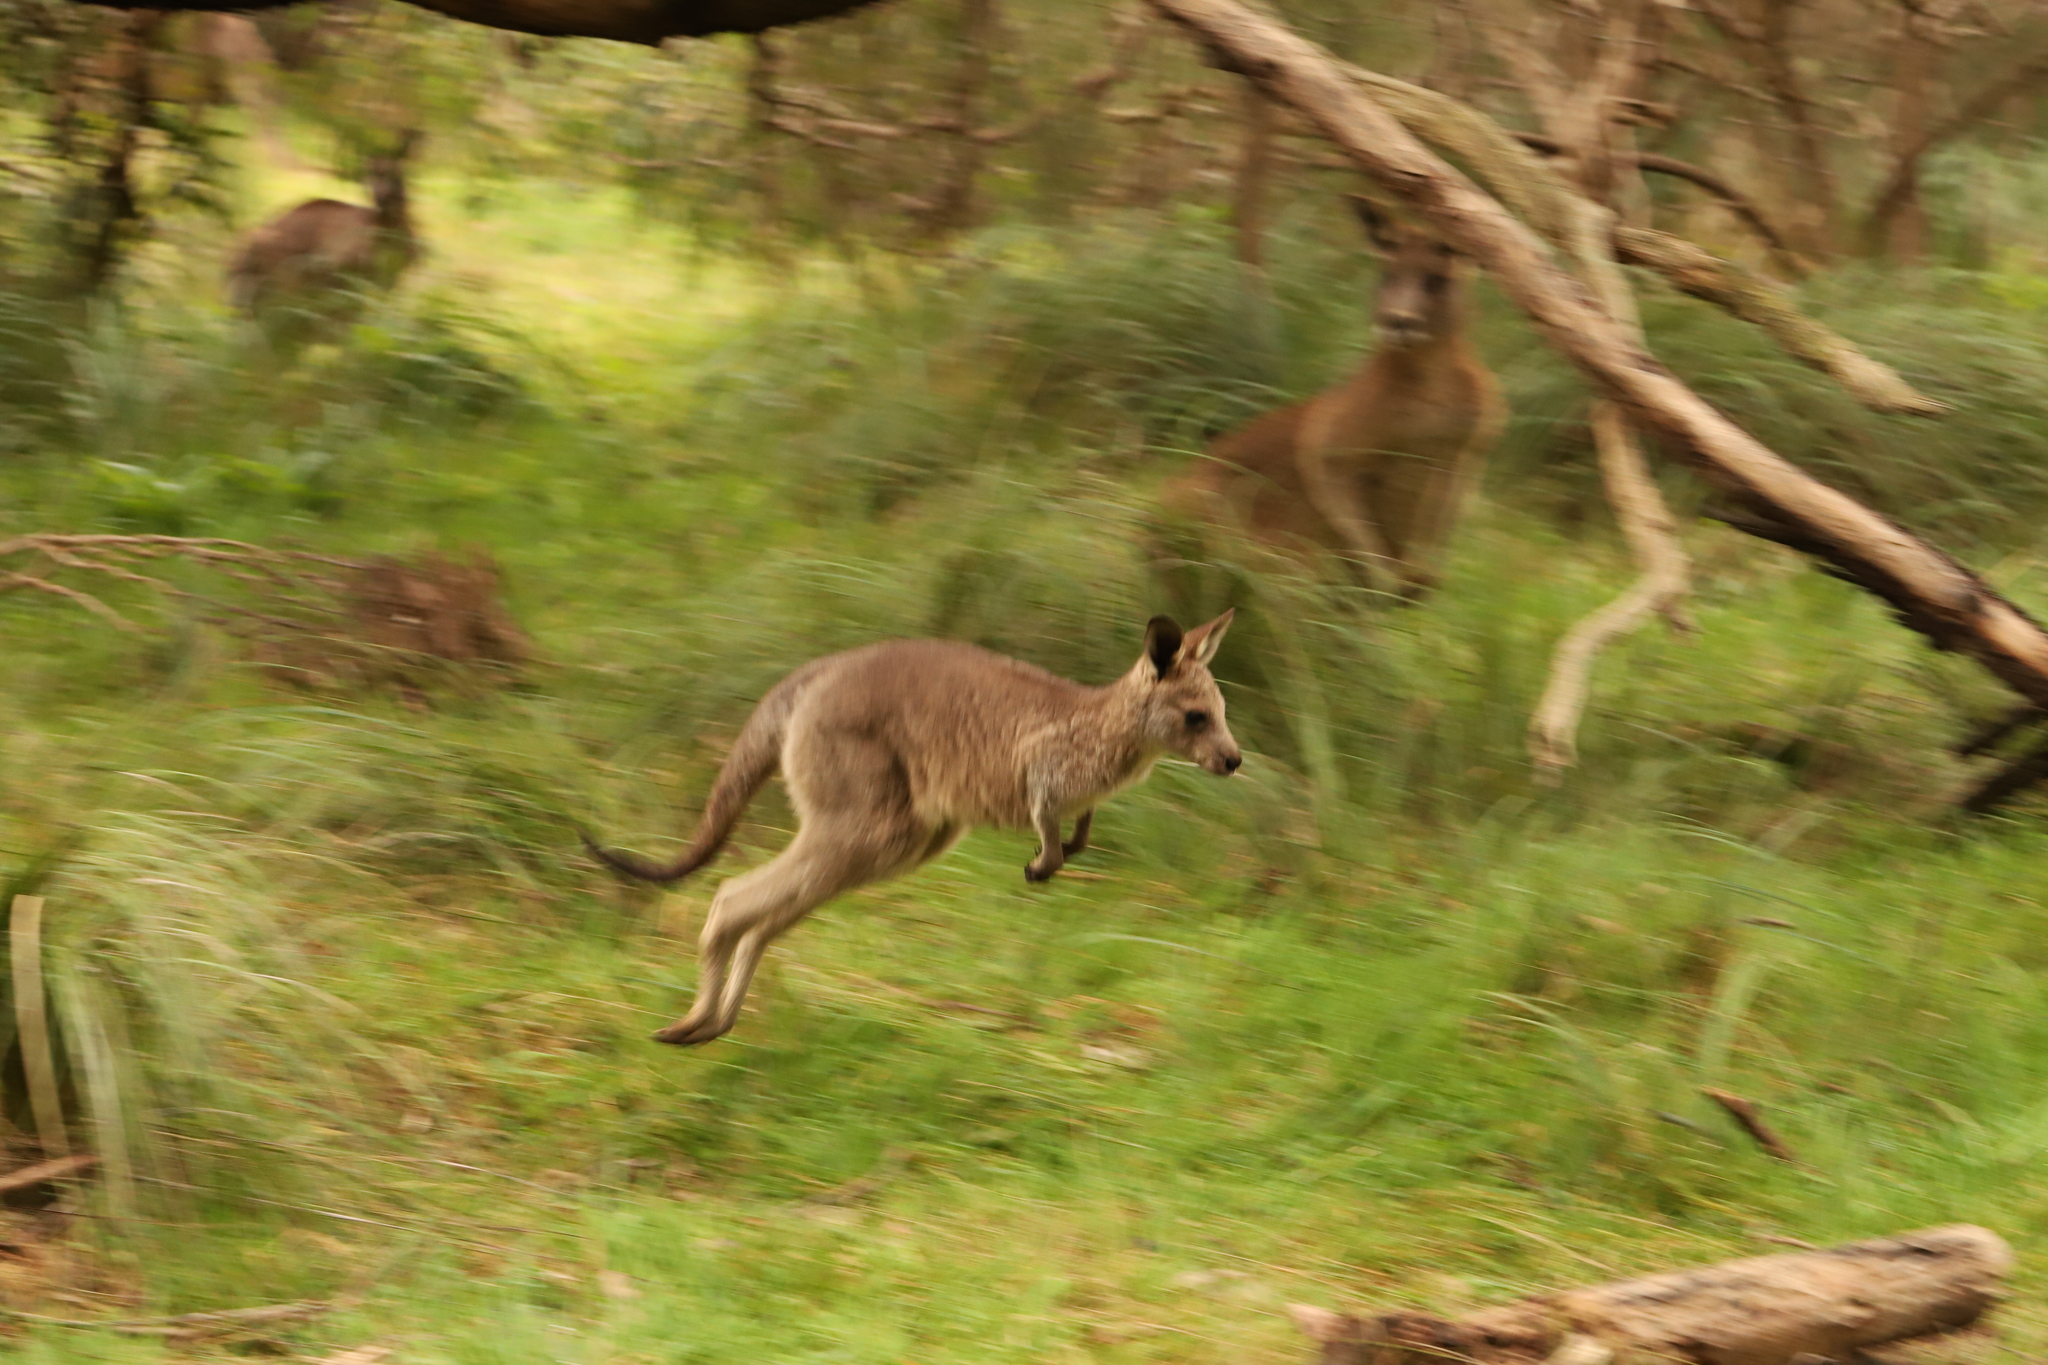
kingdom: Animalia
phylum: Chordata
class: Mammalia
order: Diprotodontia
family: Macropodidae
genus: Macropus
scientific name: Macropus giganteus
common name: Eastern grey kangaroo
